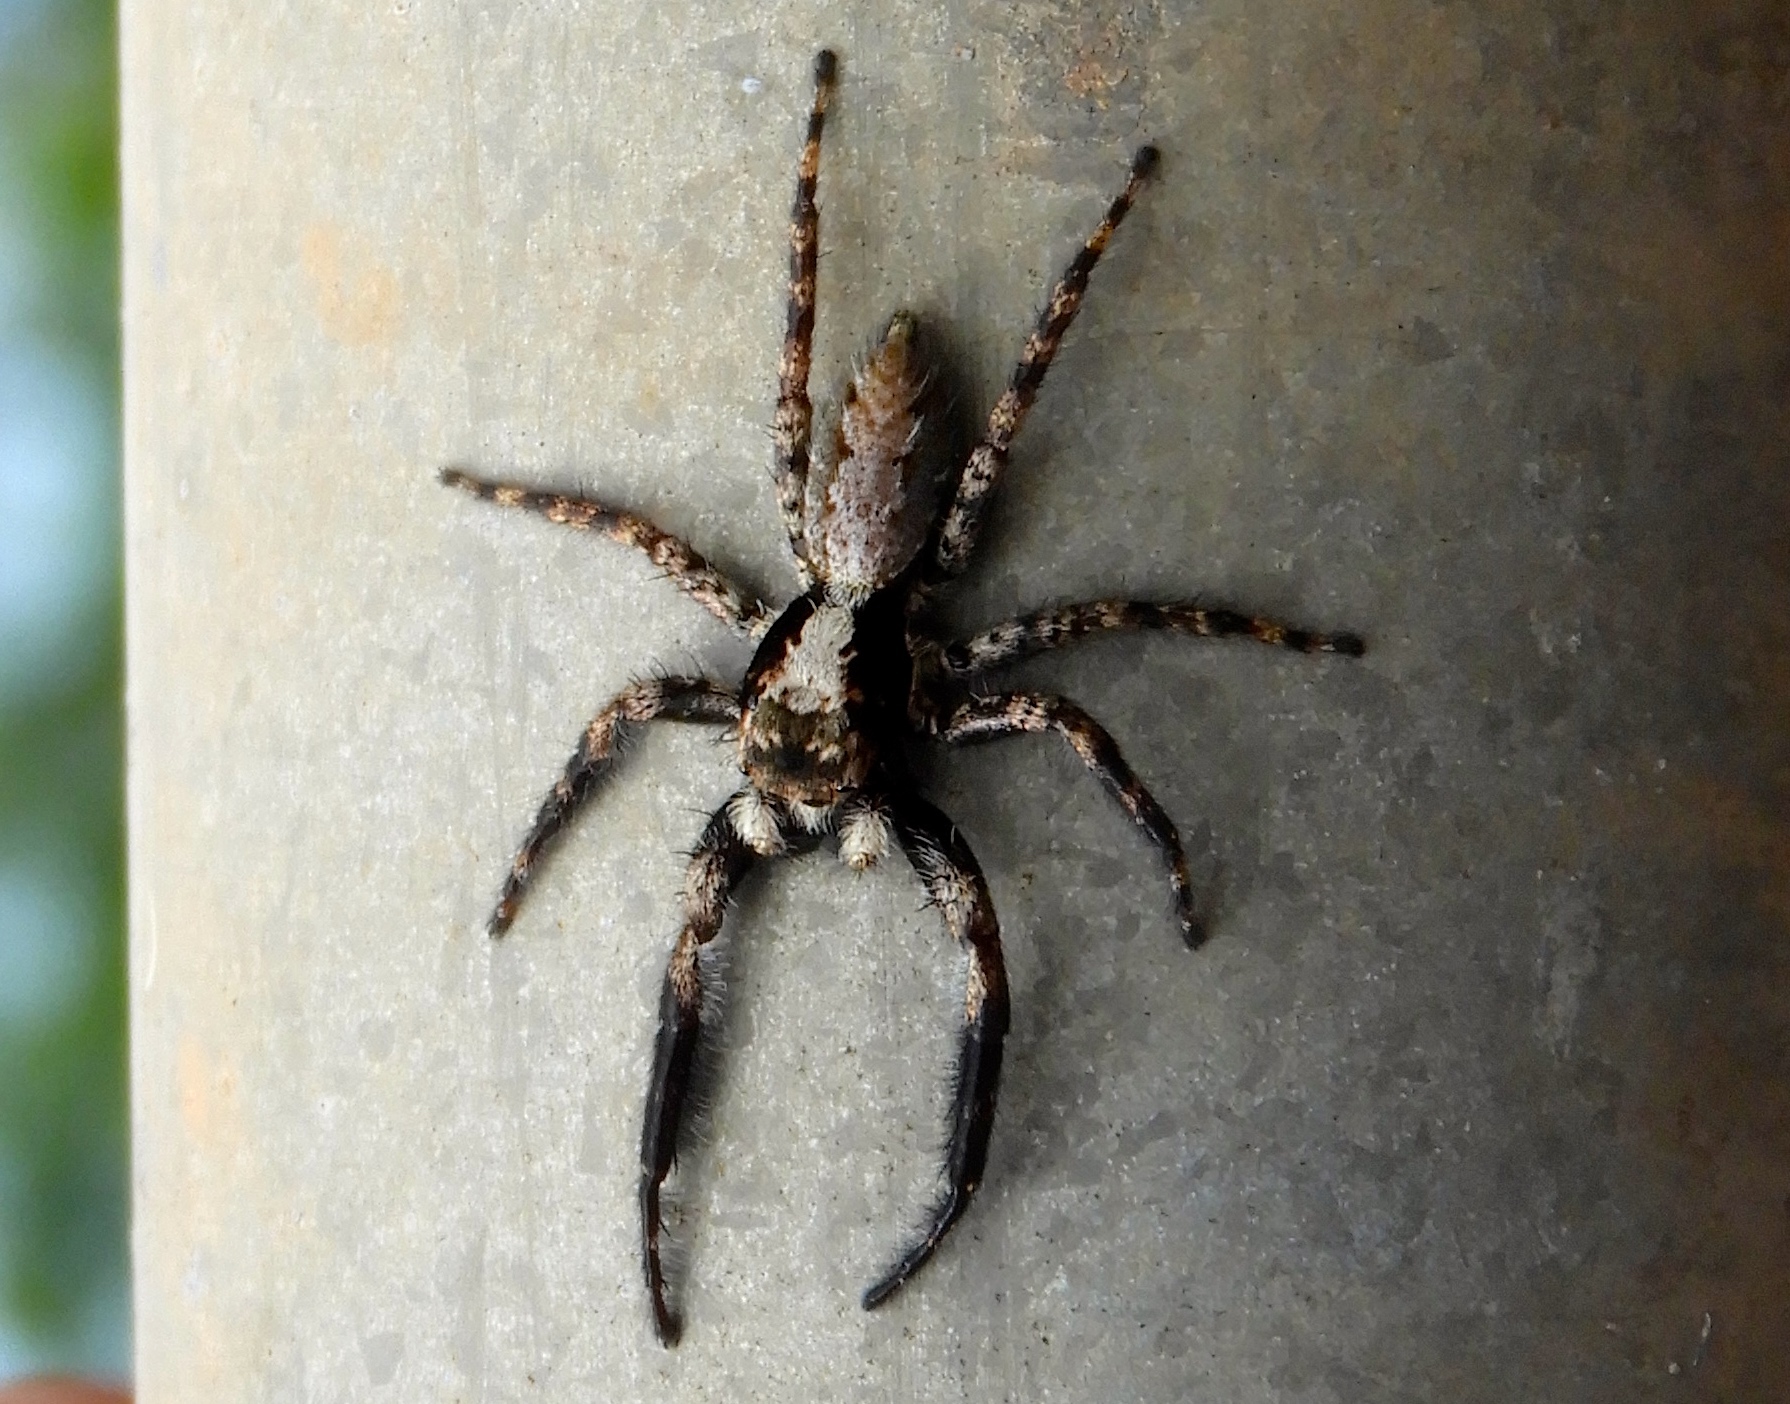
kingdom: Animalia
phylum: Arthropoda
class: Arachnida
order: Araneae
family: Salticidae
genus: Balmaceda
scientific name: Balmaceda
